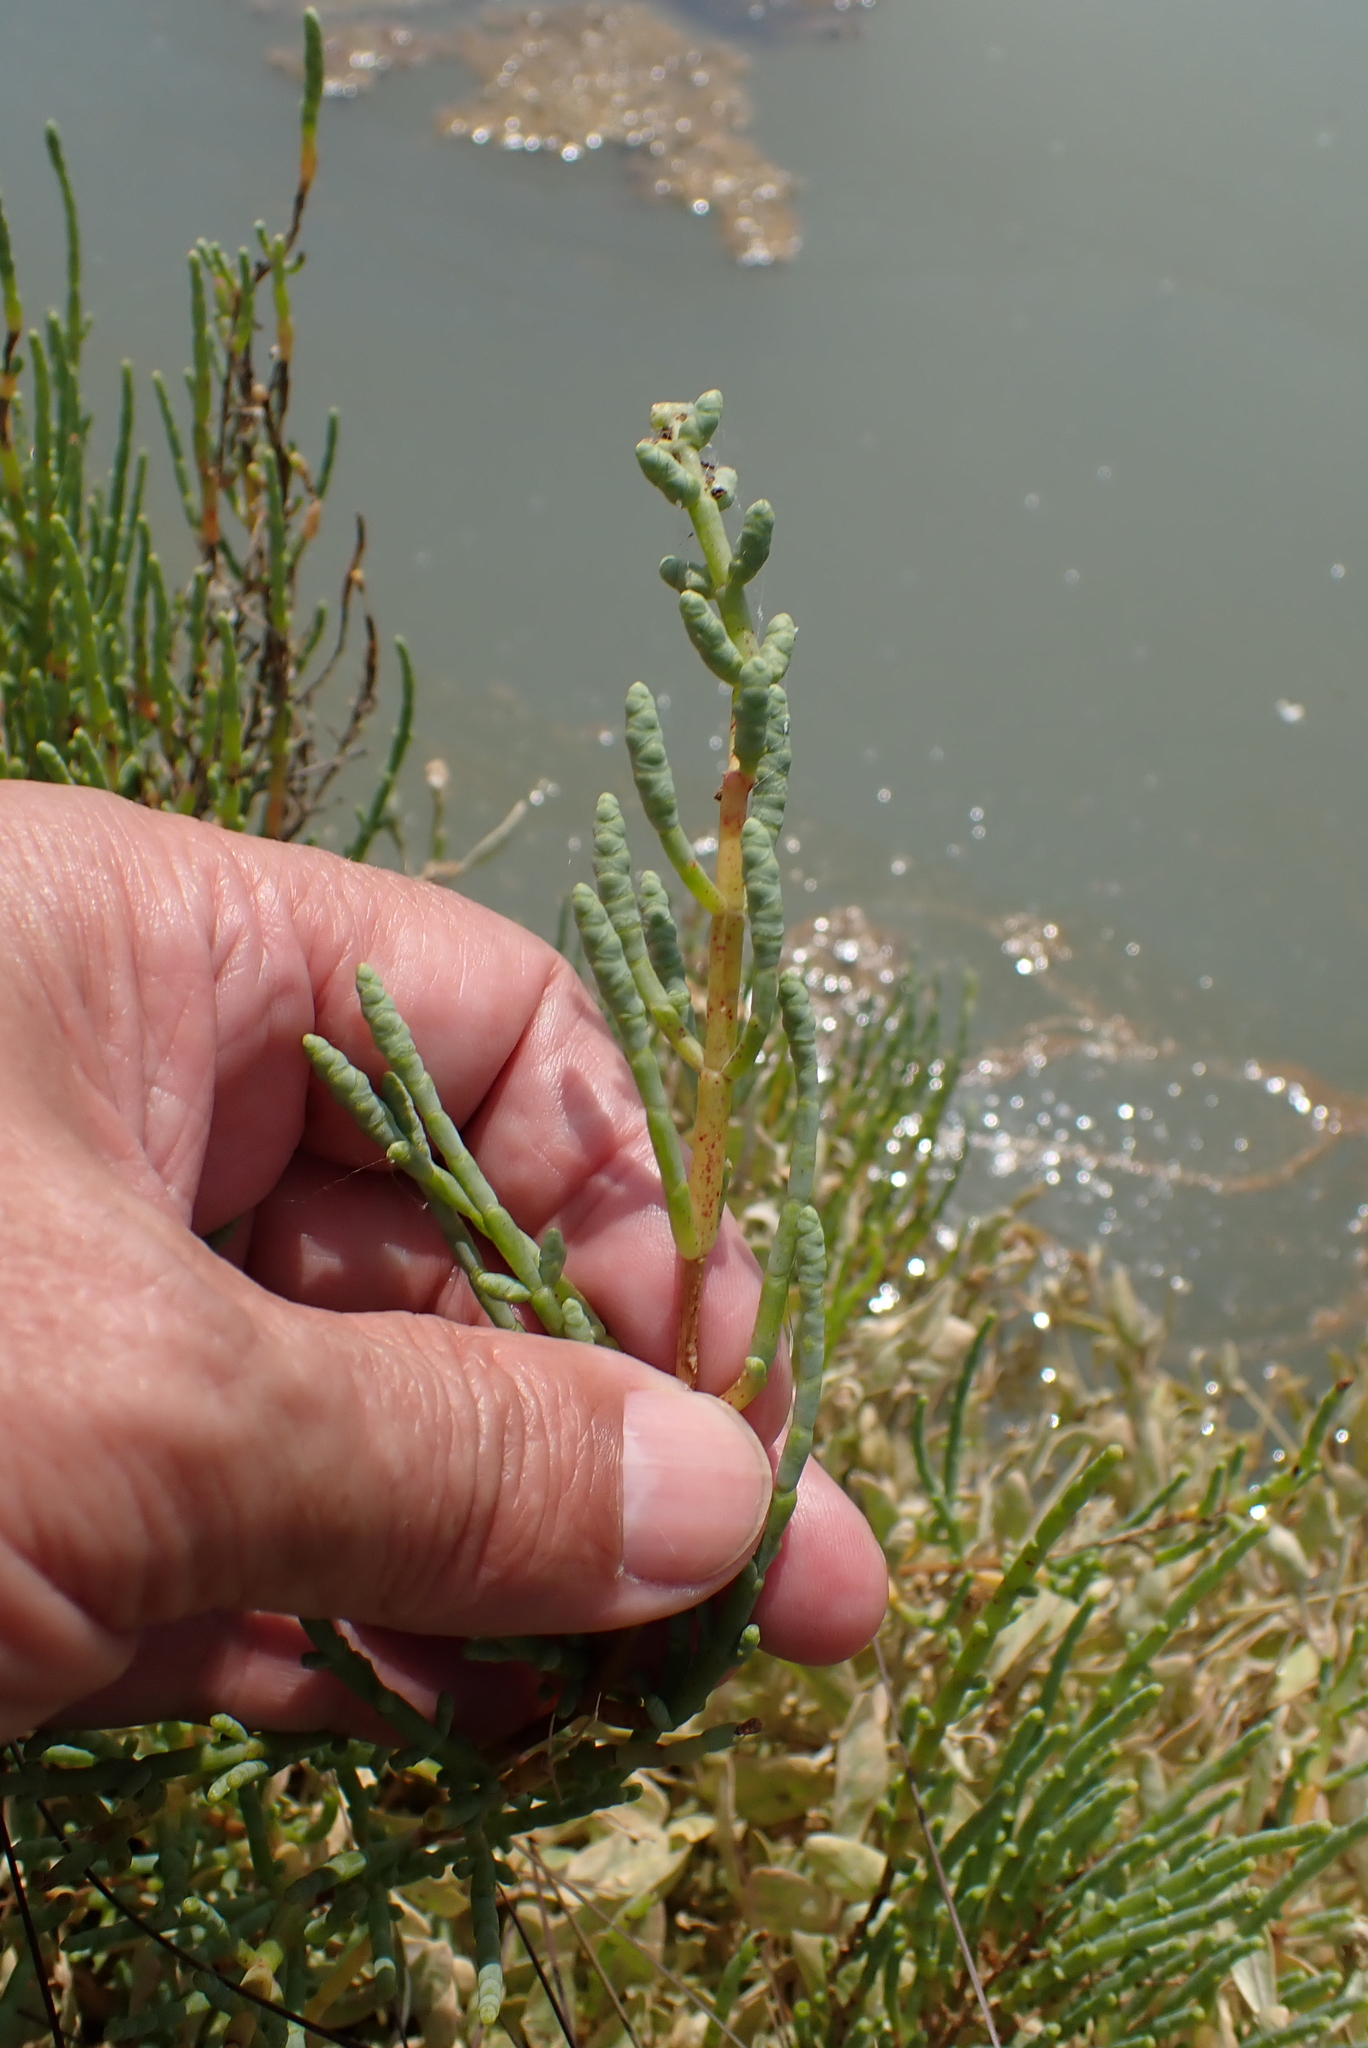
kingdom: Plantae
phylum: Tracheophyta
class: Magnoliopsida
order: Caryophyllales
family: Amaranthaceae
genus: Salicornia
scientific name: Salicornia fruticosa
